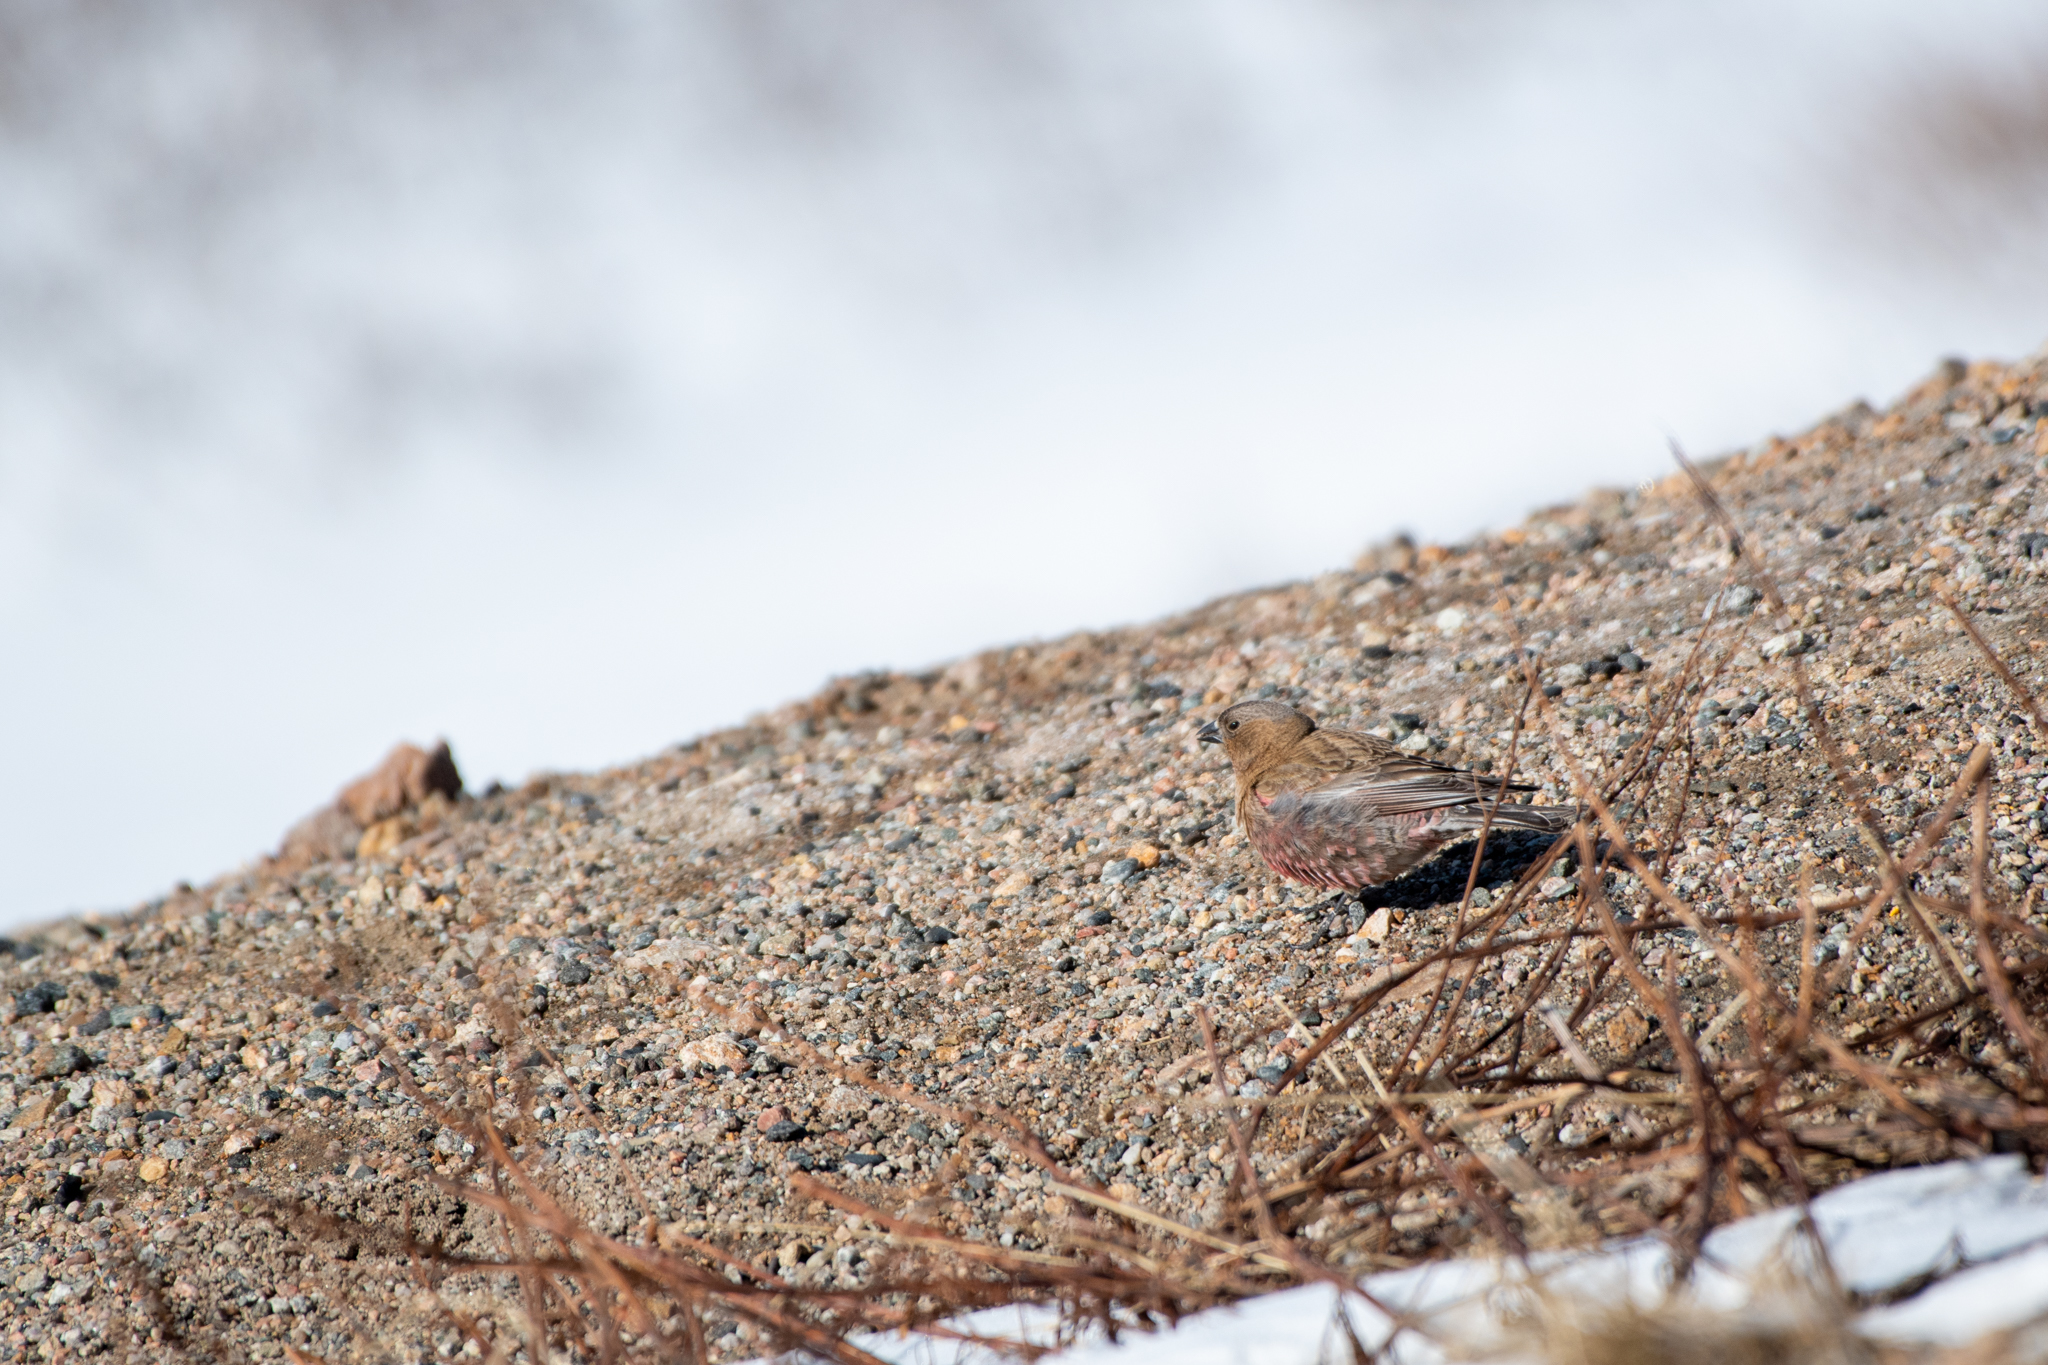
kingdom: Animalia
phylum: Chordata
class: Aves
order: Passeriformes
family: Fringillidae
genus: Leucosticte
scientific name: Leucosticte australis
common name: Brown-capped rosy-finch
